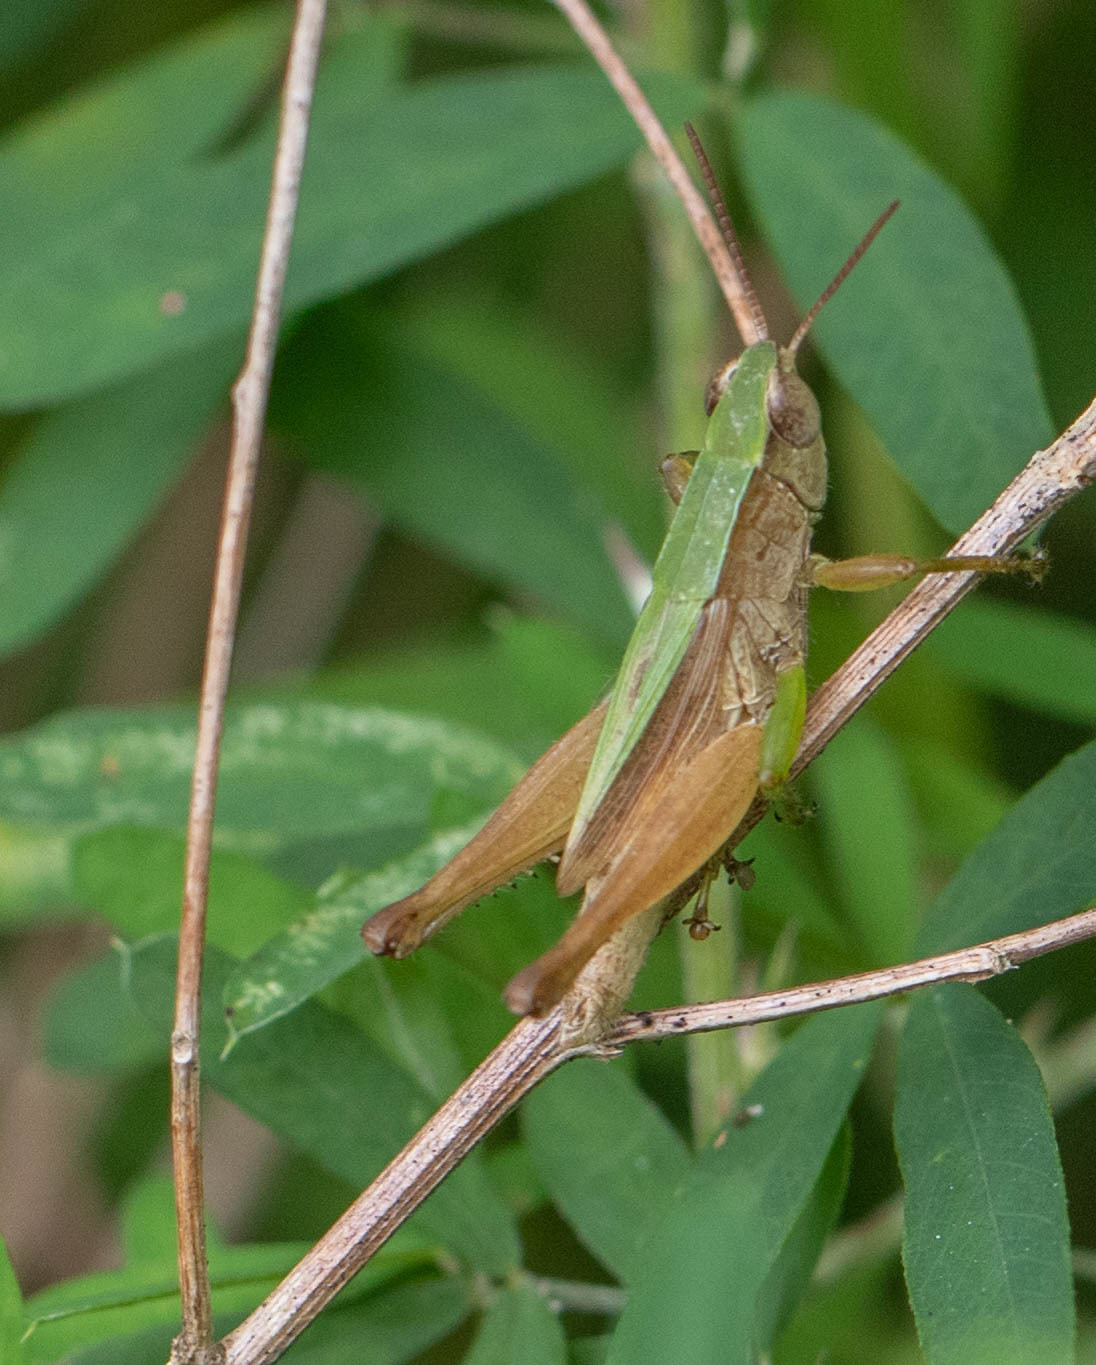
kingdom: Animalia
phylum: Arthropoda
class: Insecta
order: Orthoptera
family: Acrididae
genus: Dichromorpha
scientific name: Dichromorpha viridis
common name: Short-winged green grasshopper
